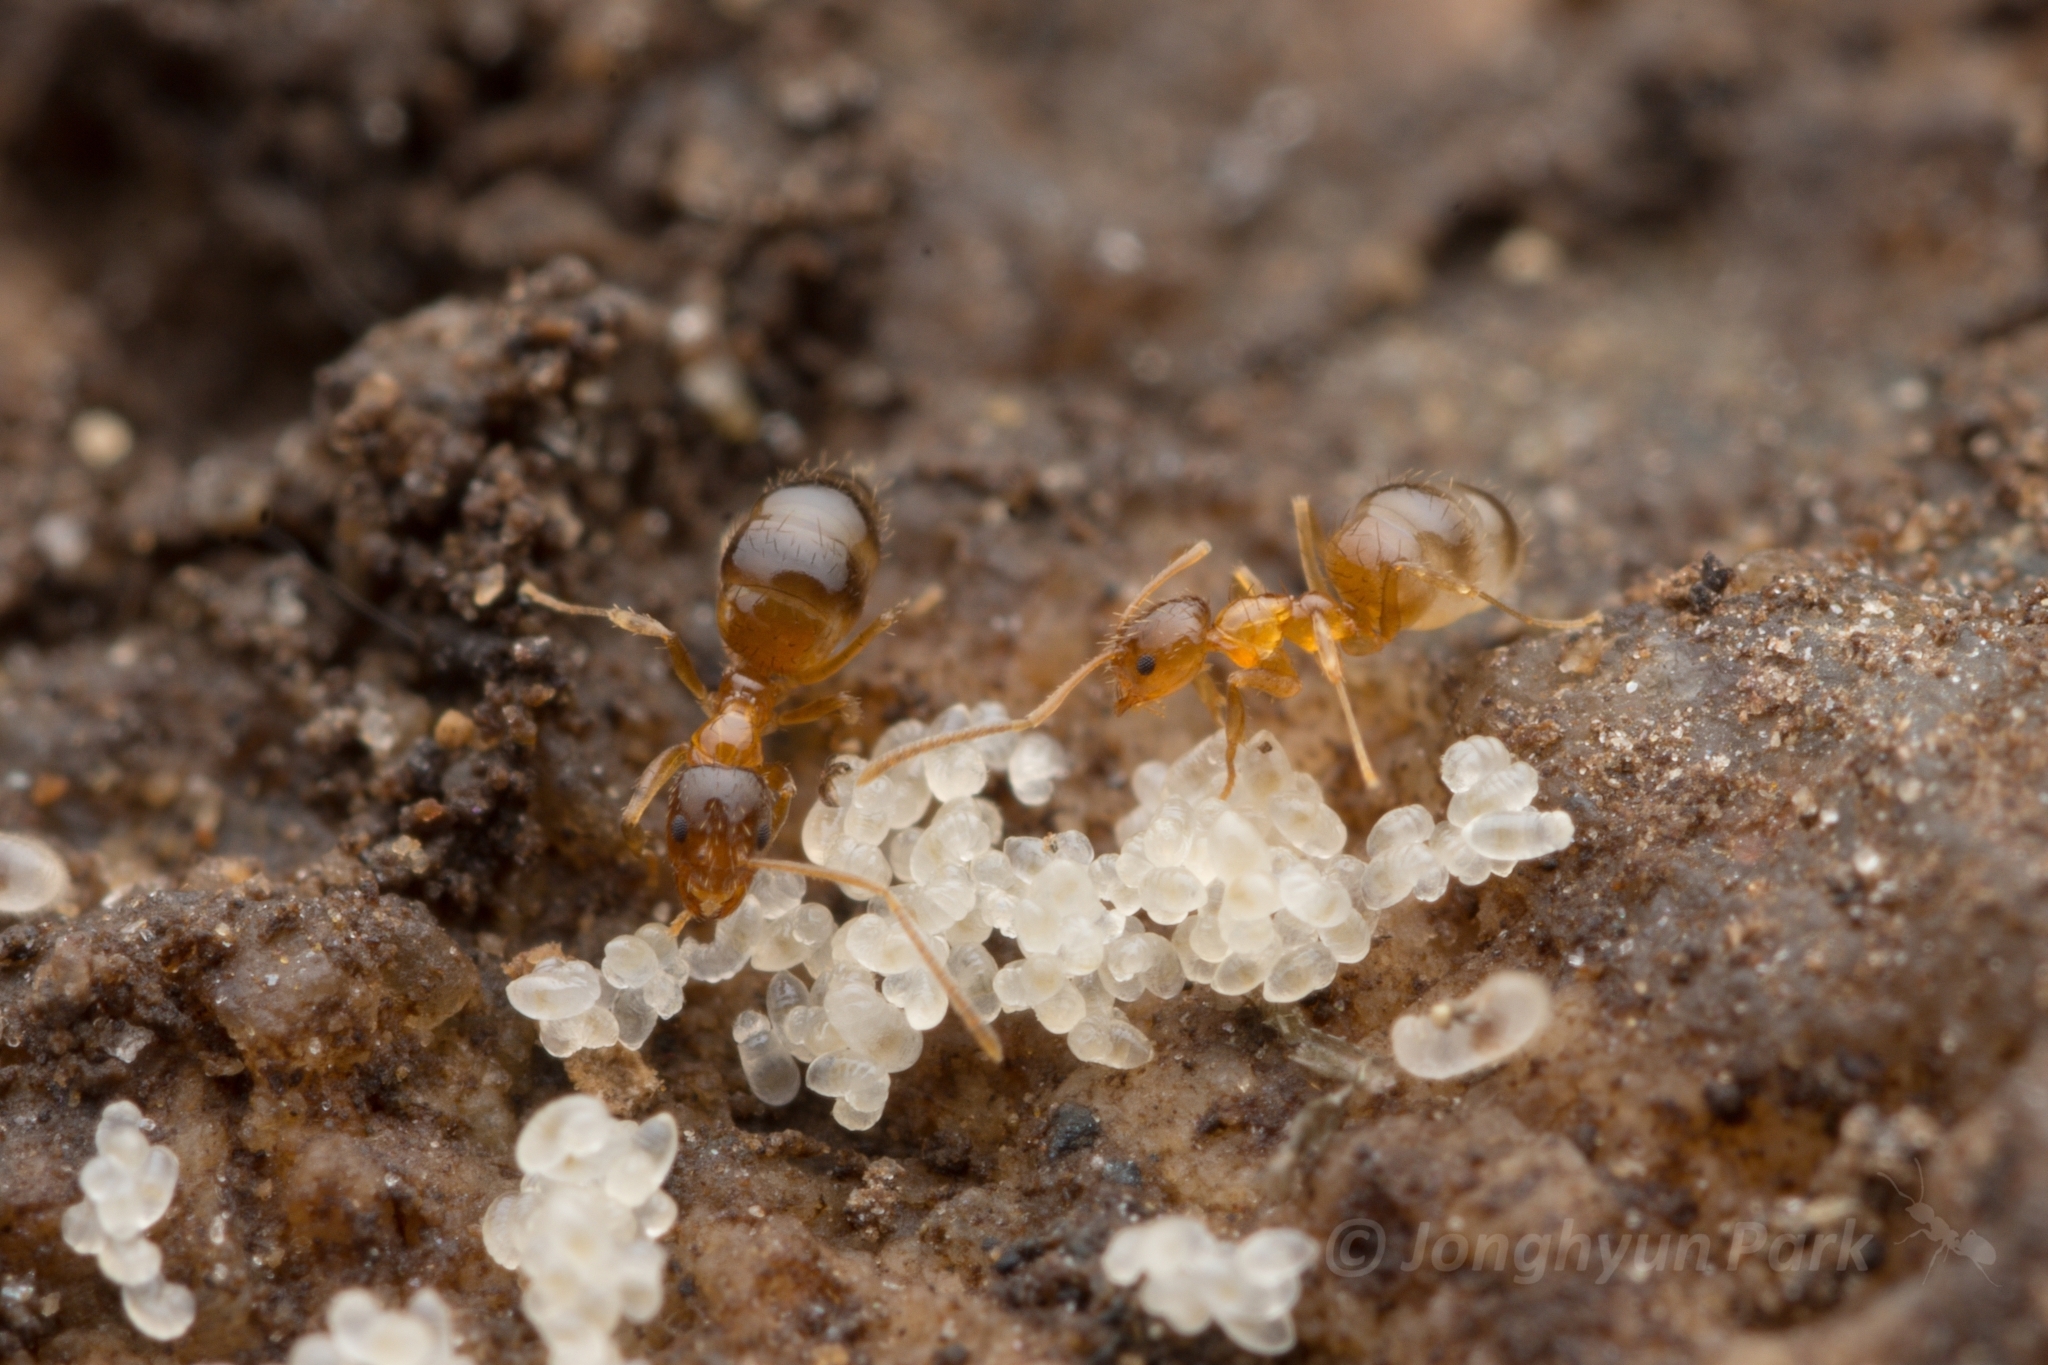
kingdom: Animalia
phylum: Arthropoda
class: Insecta
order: Hymenoptera
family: Formicidae
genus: Paratrechina
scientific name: Paratrechina flavipes
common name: Eastern asian formicine ant
